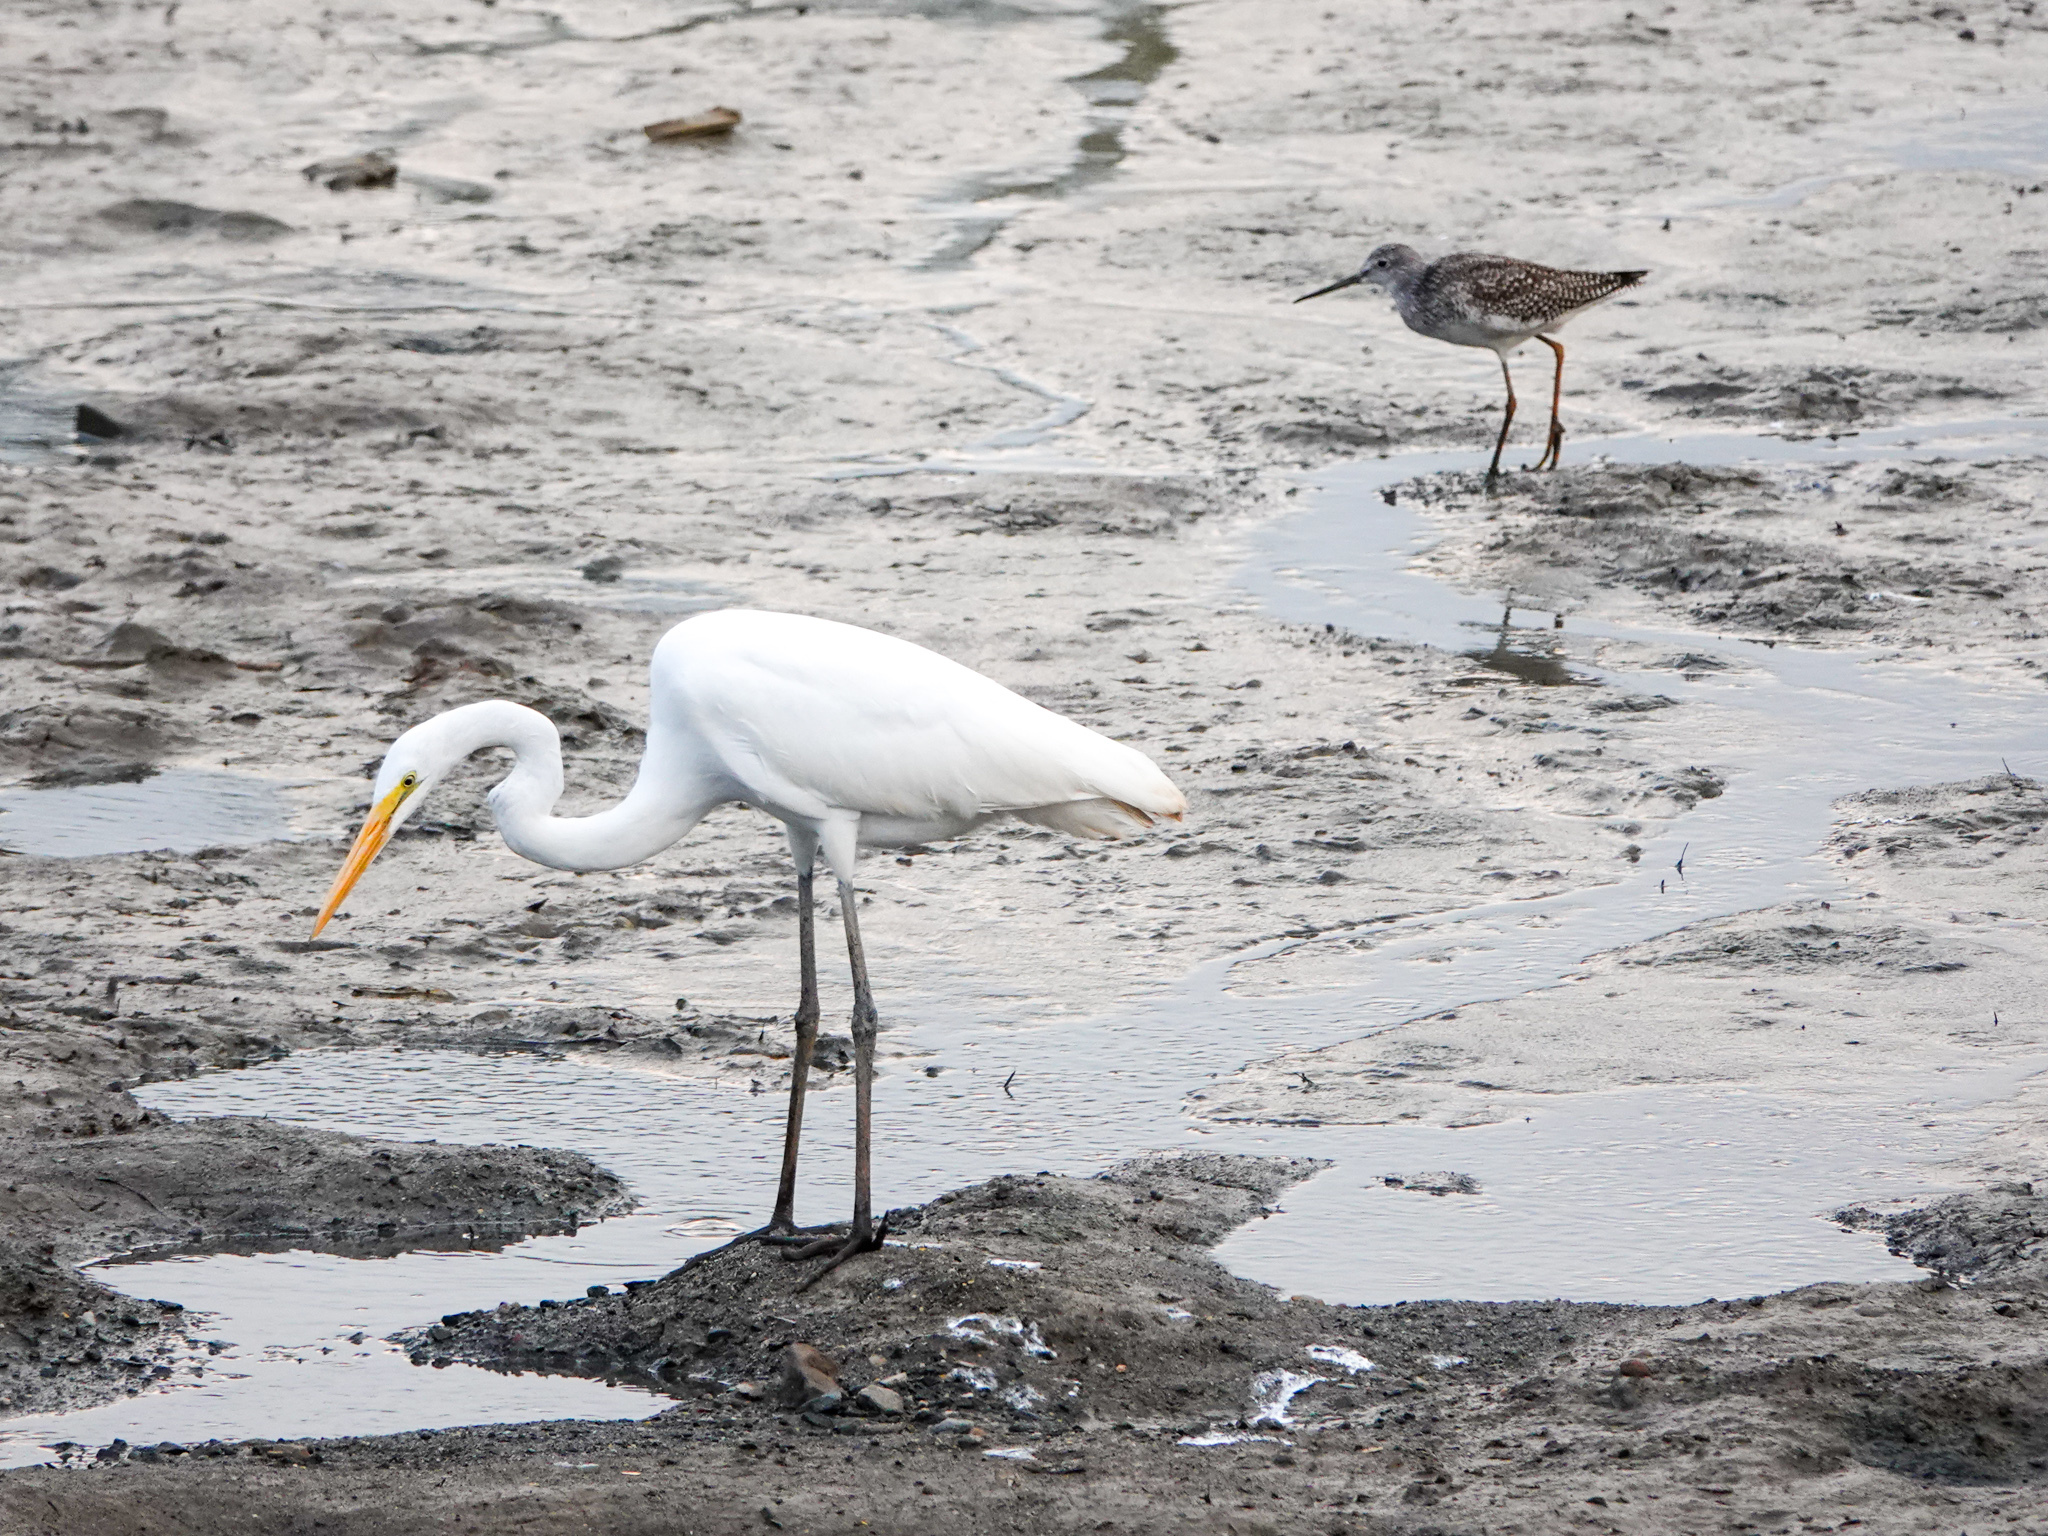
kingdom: Animalia
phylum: Chordata
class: Aves
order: Charadriiformes
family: Scolopacidae
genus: Tringa
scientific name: Tringa melanoleuca
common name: Greater yellowlegs
